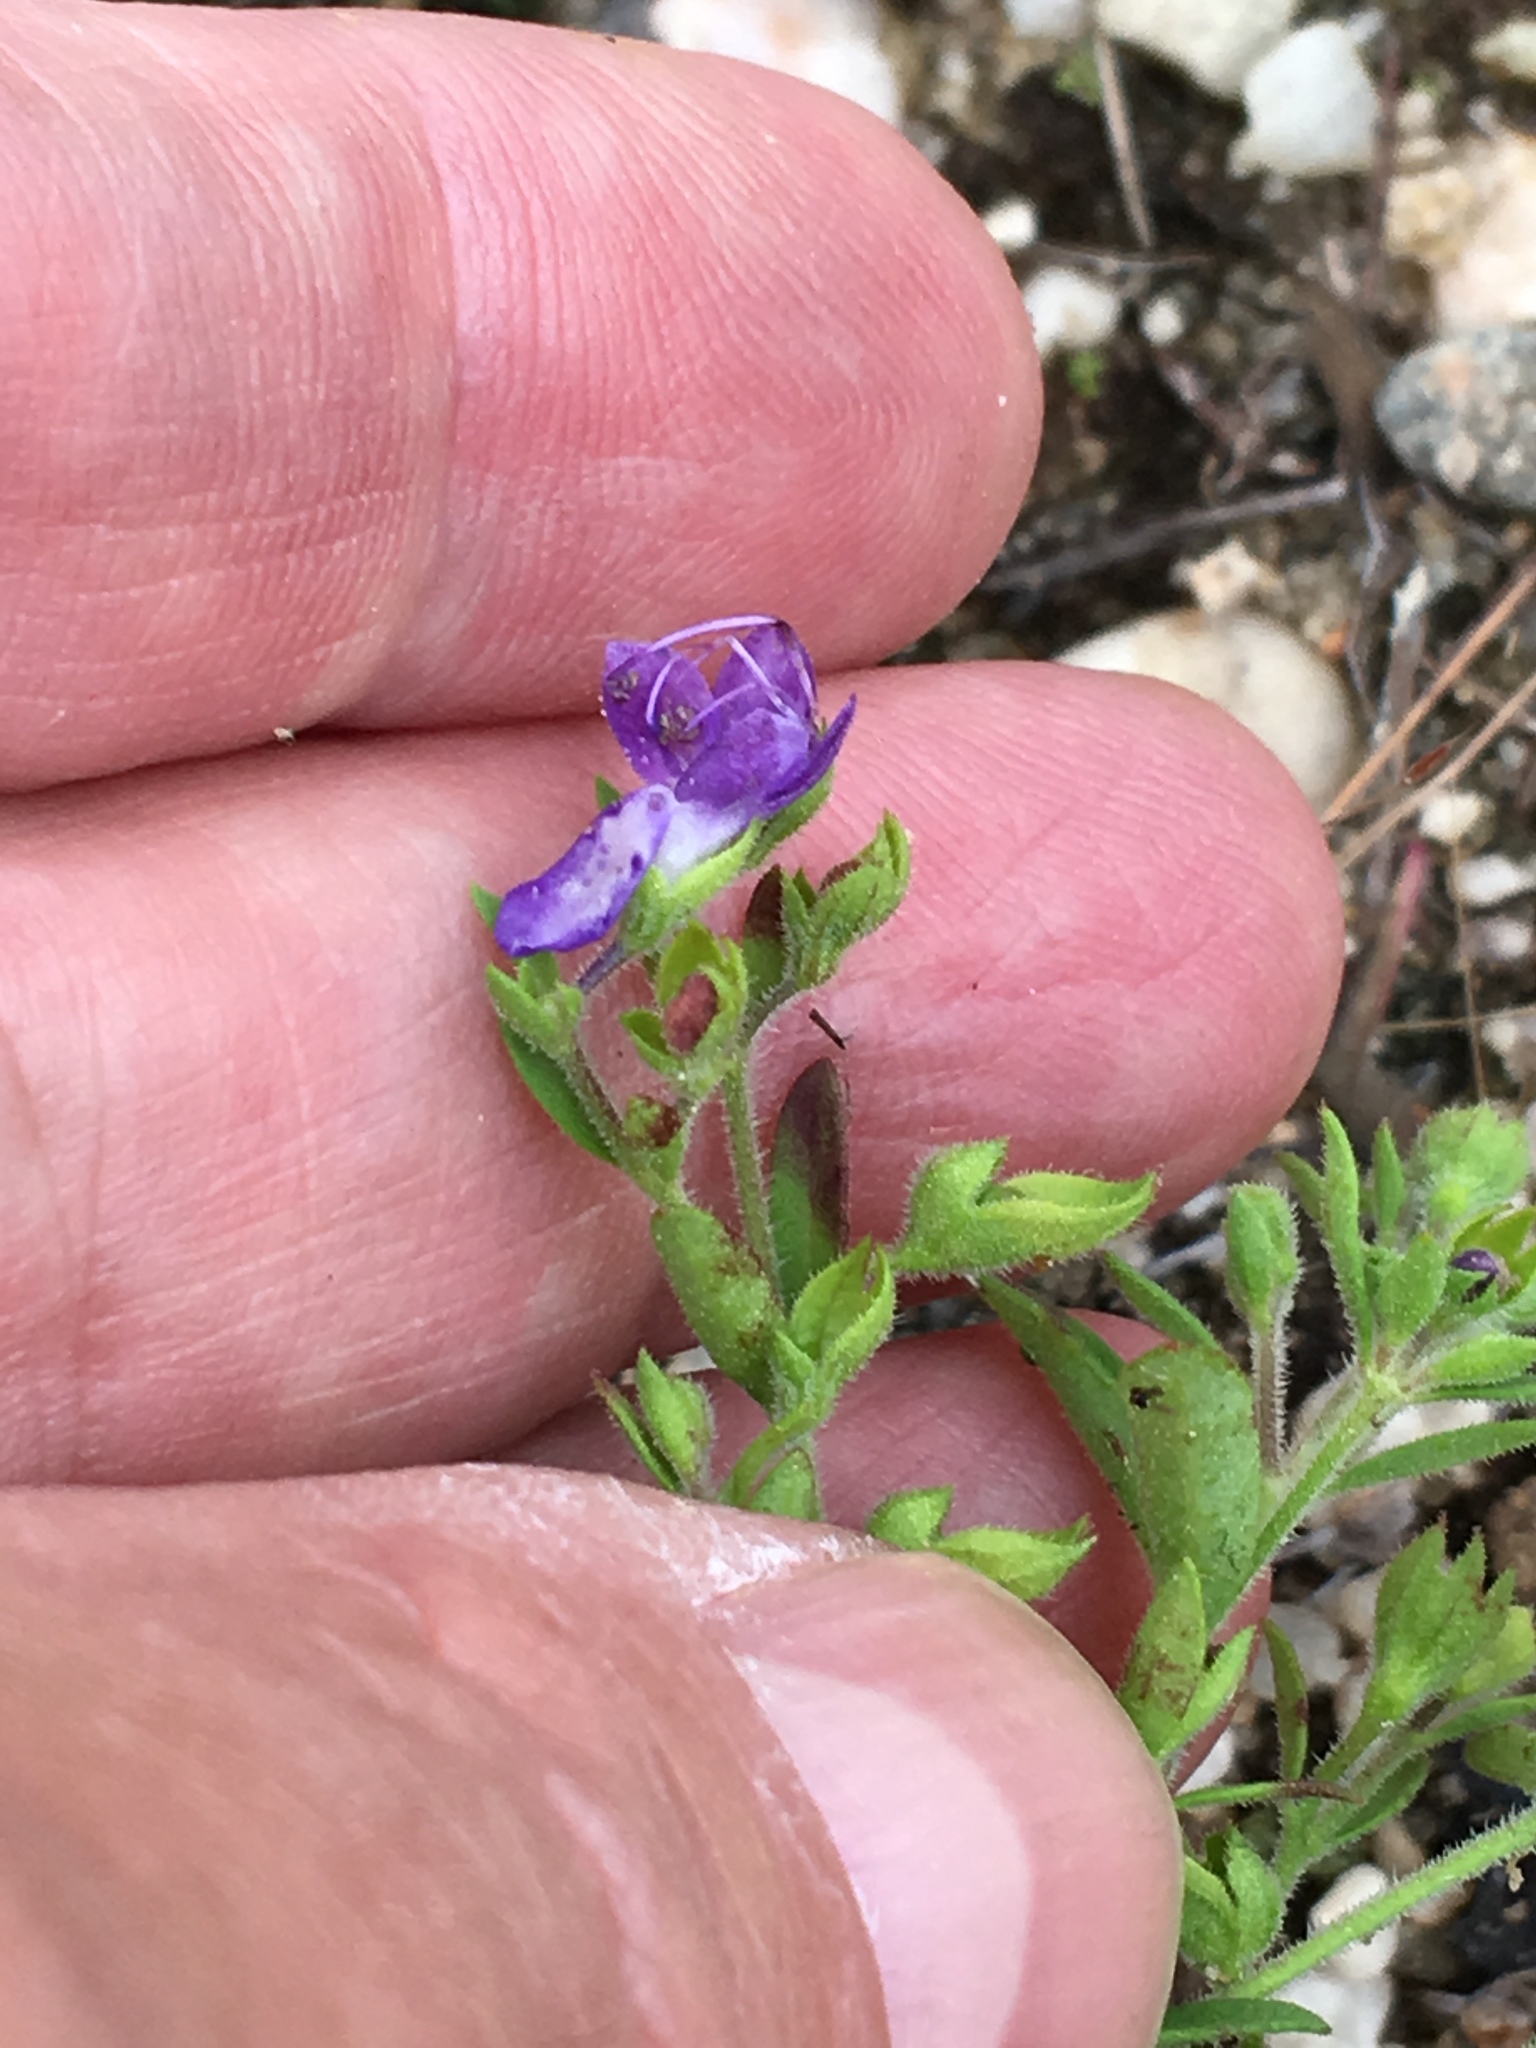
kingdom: Plantae
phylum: Tracheophyta
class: Magnoliopsida
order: Lamiales
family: Lamiaceae
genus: Trichostema
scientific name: Trichostema dichotomum
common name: Bastard pennyroyal
